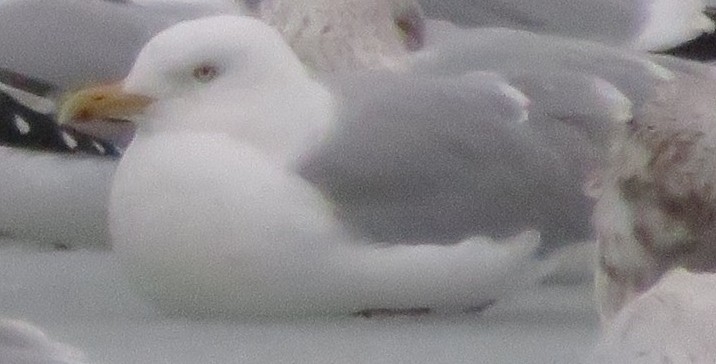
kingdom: Animalia
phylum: Chordata
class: Aves
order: Charadriiformes
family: Laridae
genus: Larus
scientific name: Larus argentatus
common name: Herring gull
